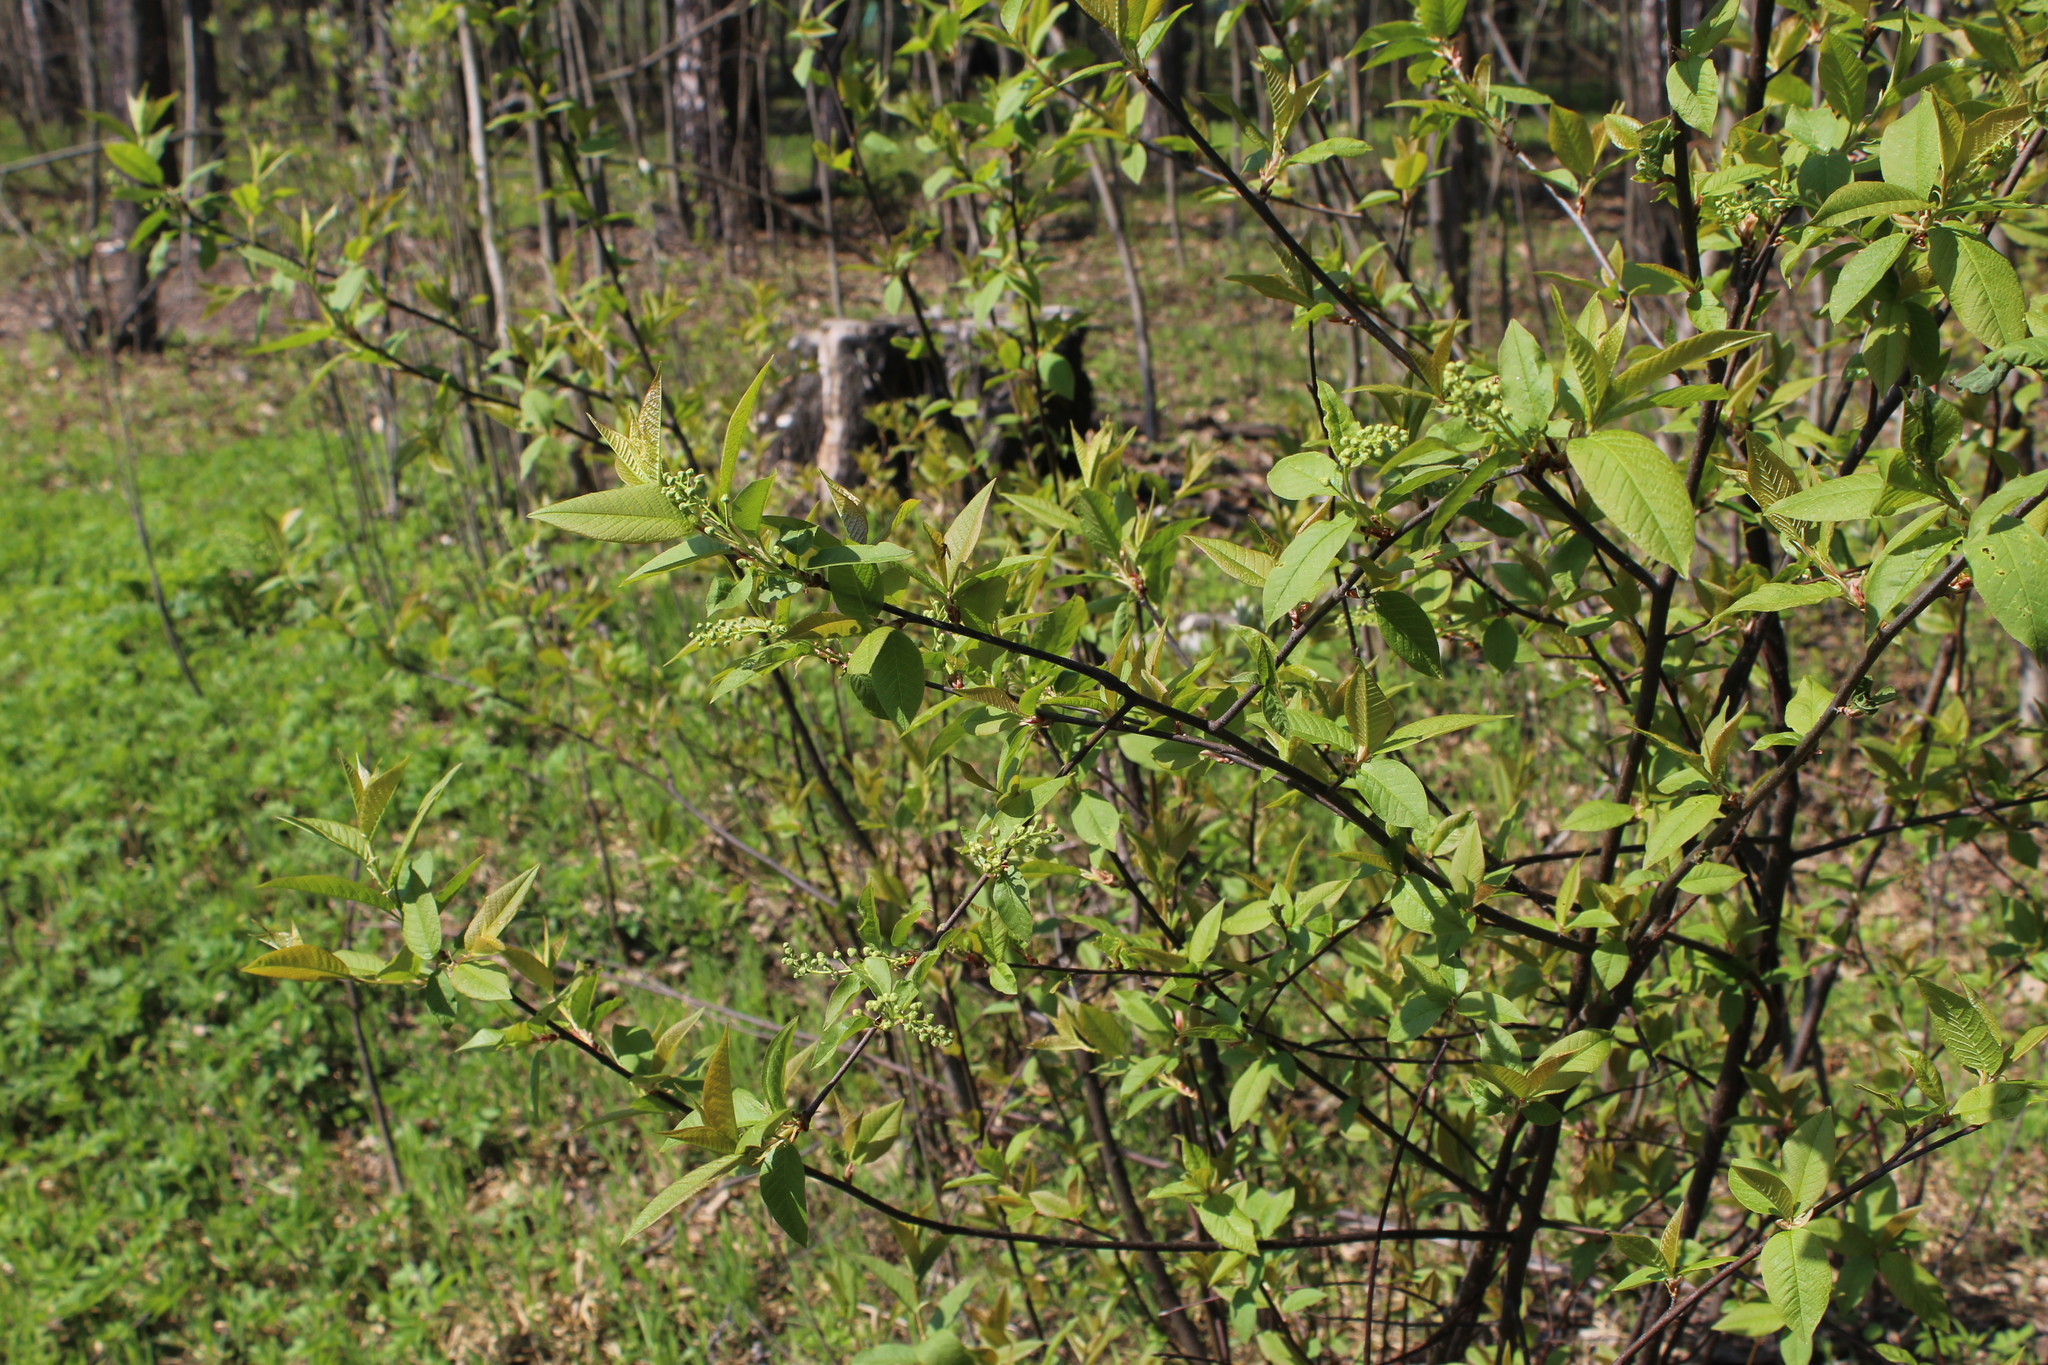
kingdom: Plantae
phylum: Tracheophyta
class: Magnoliopsida
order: Rosales
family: Rosaceae
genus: Prunus
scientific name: Prunus padus
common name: Bird cherry
